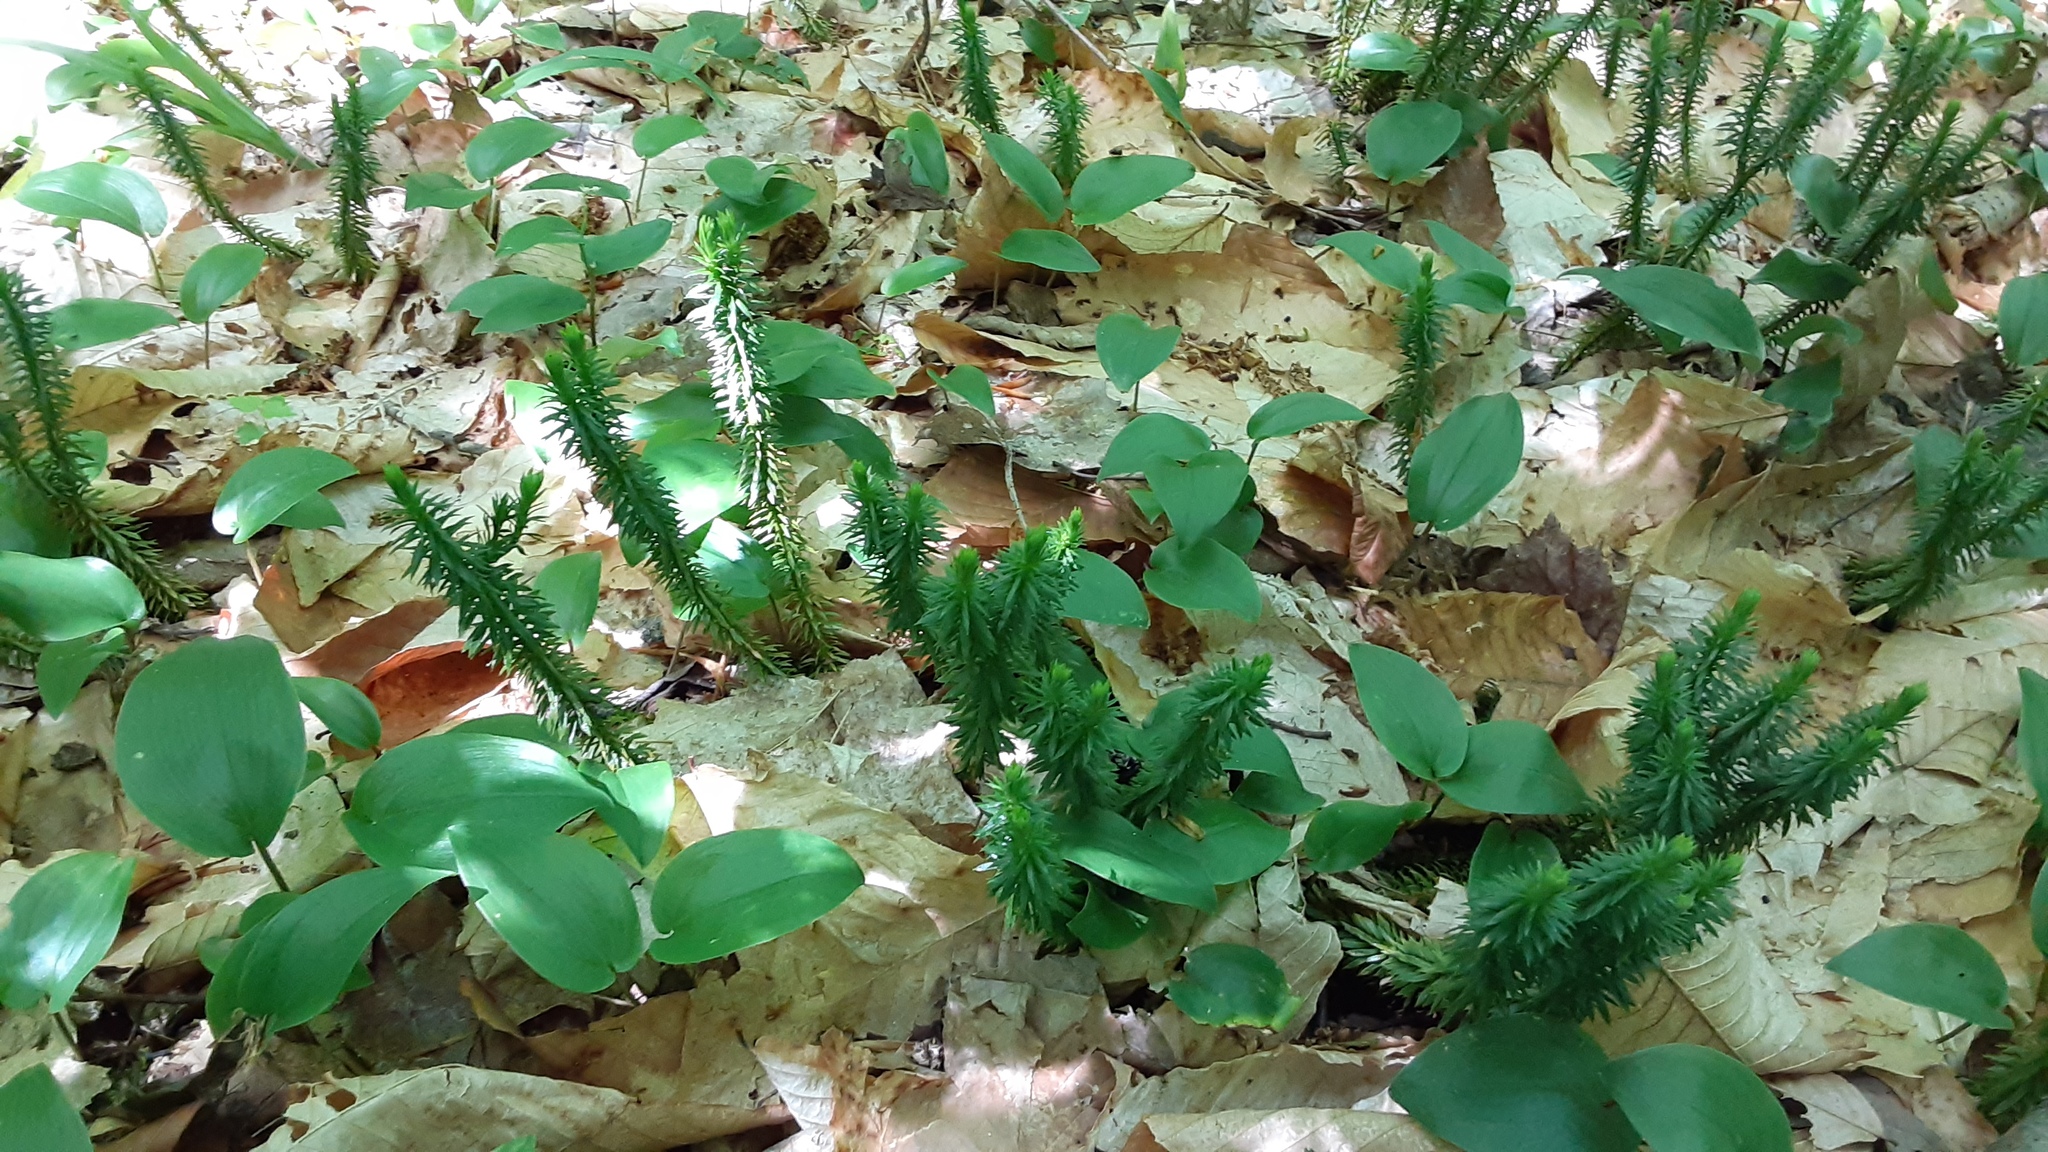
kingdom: Plantae
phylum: Tracheophyta
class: Lycopodiopsida
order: Lycopodiales
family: Lycopodiaceae
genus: Huperzia
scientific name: Huperzia lucidula
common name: Shining clubmoss
